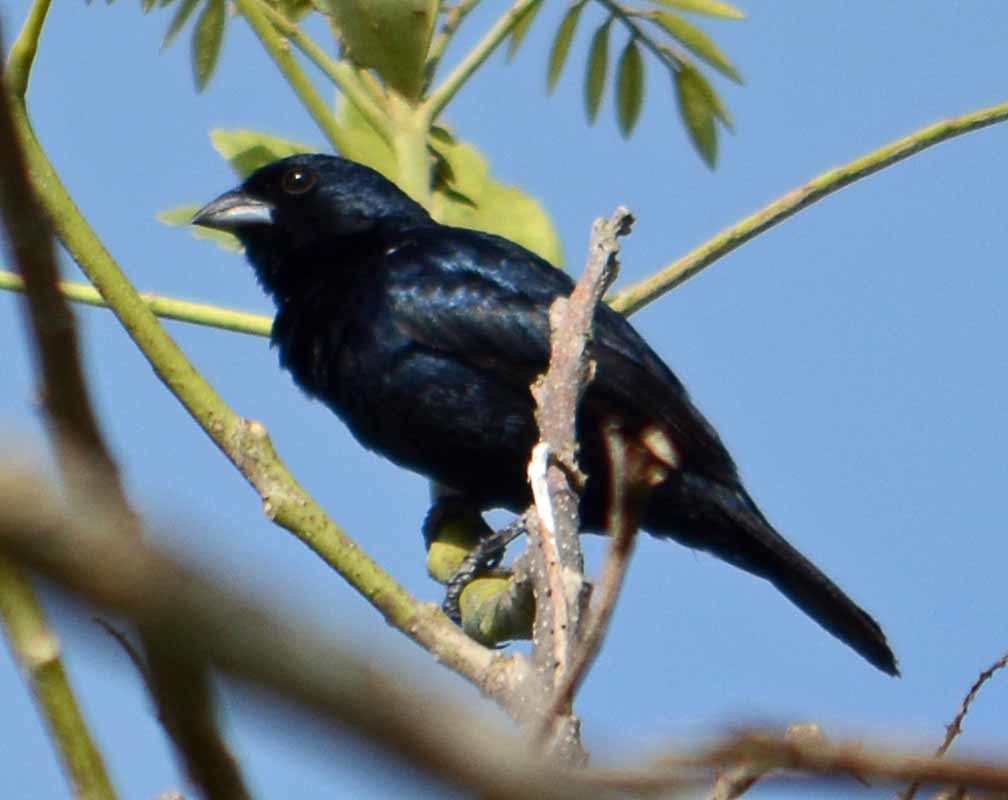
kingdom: Animalia
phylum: Chordata
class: Aves
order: Passeriformes
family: Thraupidae
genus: Volatinia
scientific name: Volatinia jacarina
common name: Blue-black grassquit
